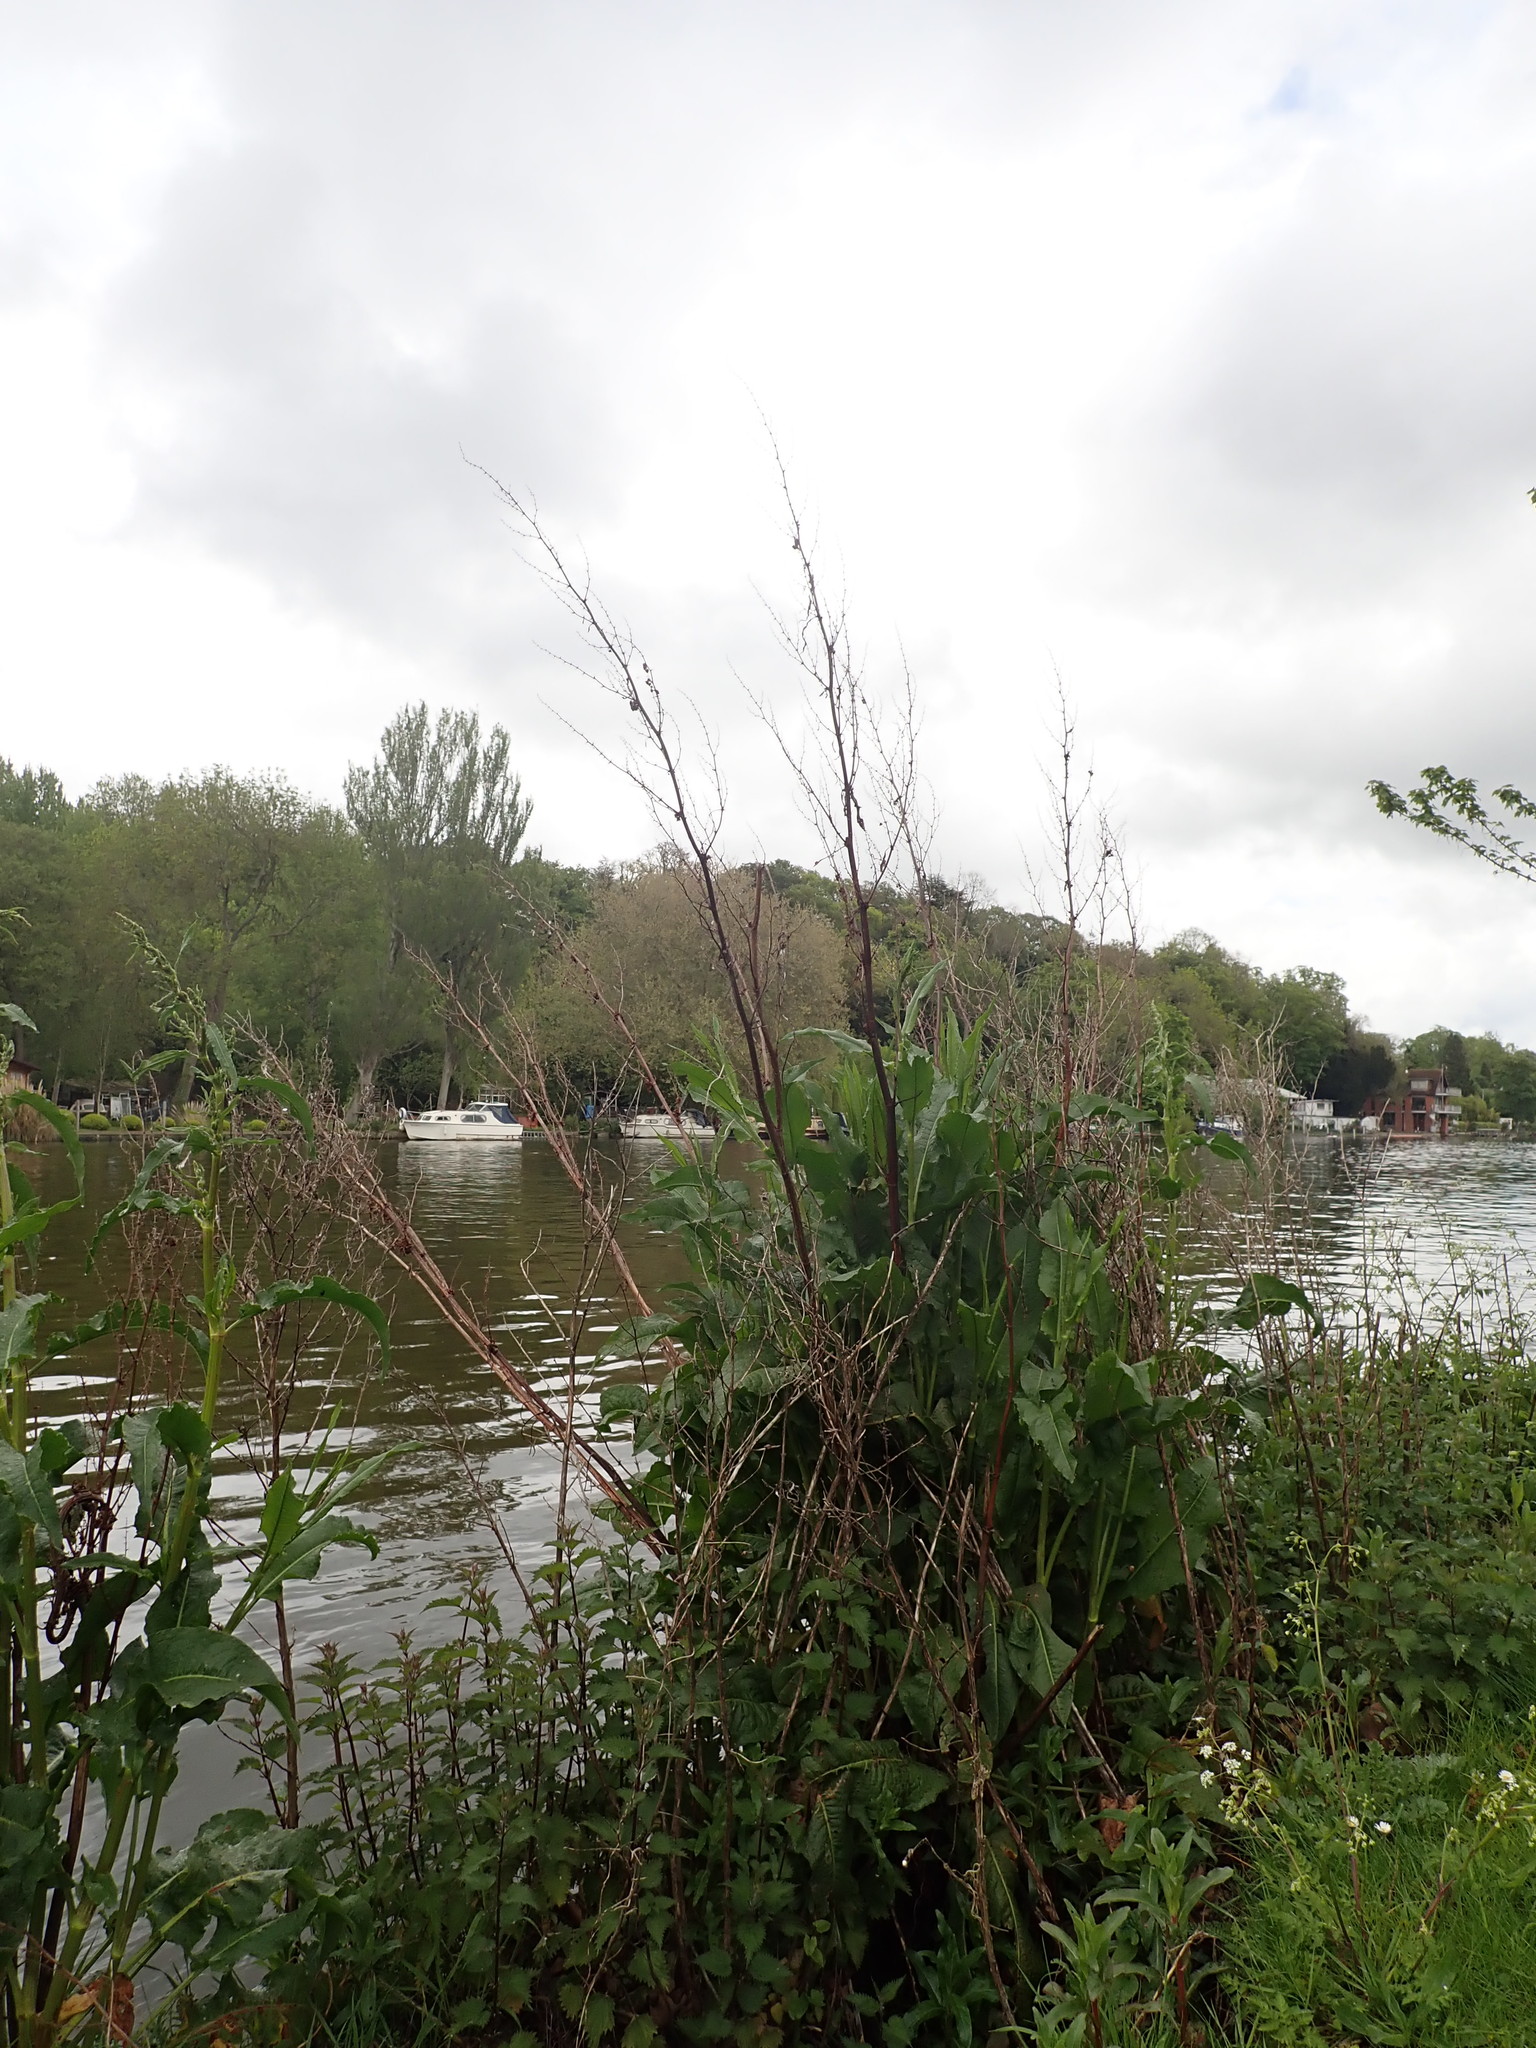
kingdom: Plantae
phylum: Tracheophyta
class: Magnoliopsida
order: Caryophyllales
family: Polygonaceae
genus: Rumex
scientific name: Rumex cristatus
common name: Greek dock
